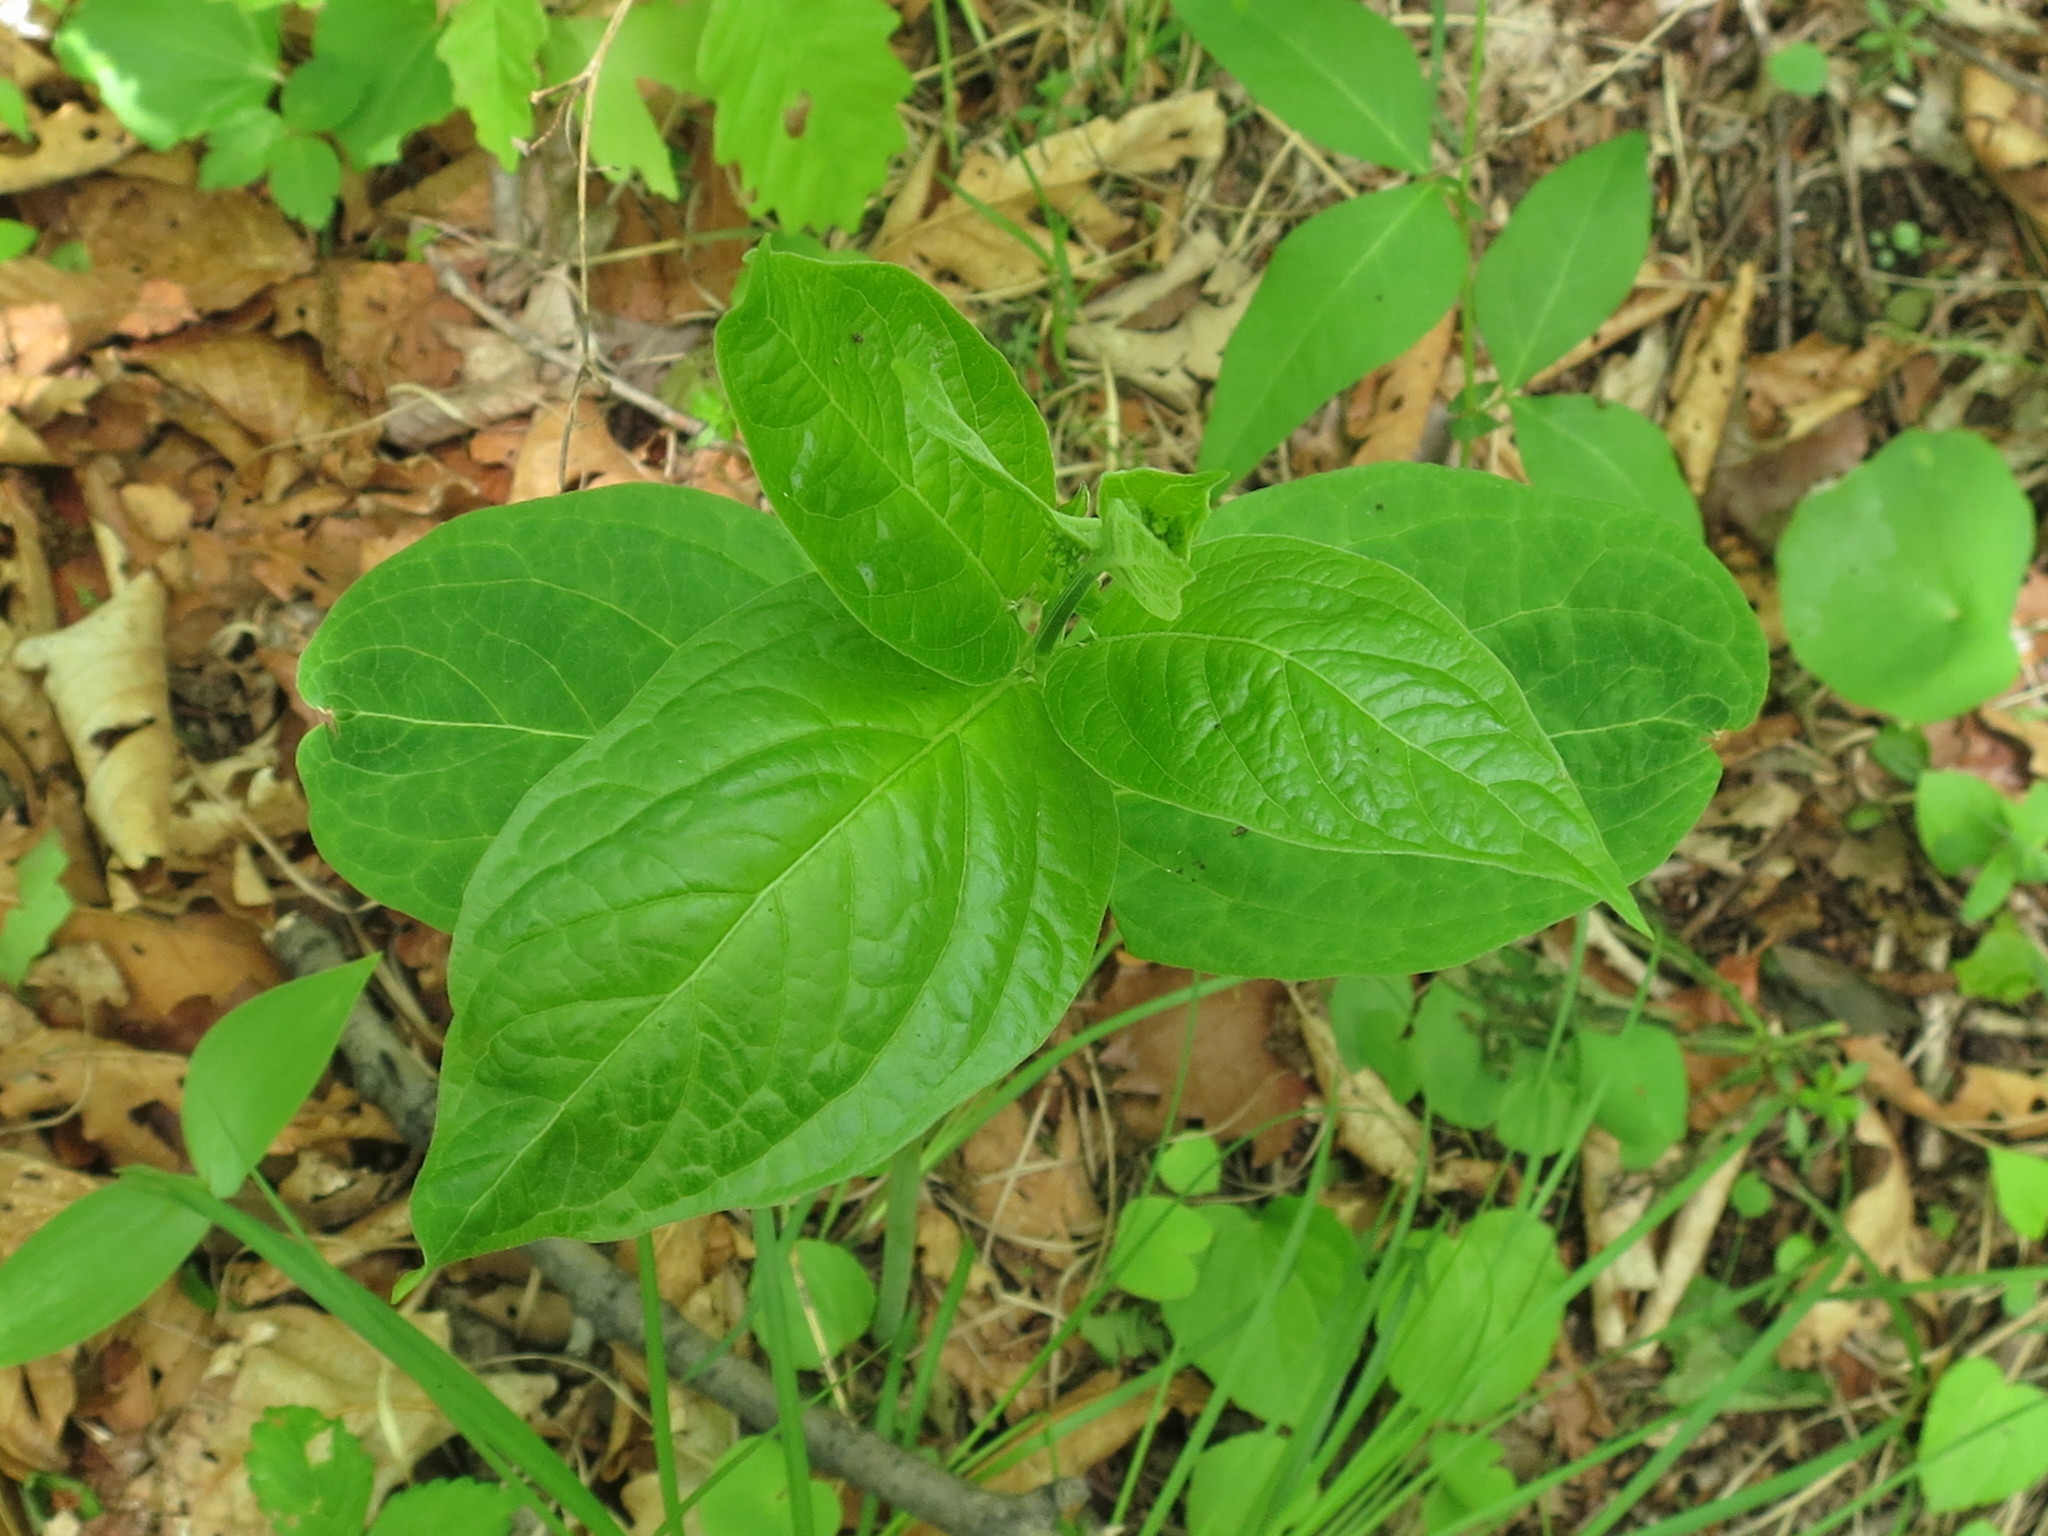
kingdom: Plantae
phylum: Tracheophyta
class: Magnoliopsida
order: Gentianales
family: Apocynaceae
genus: Vincetoxicum
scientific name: Vincetoxicum ascyrifolium
